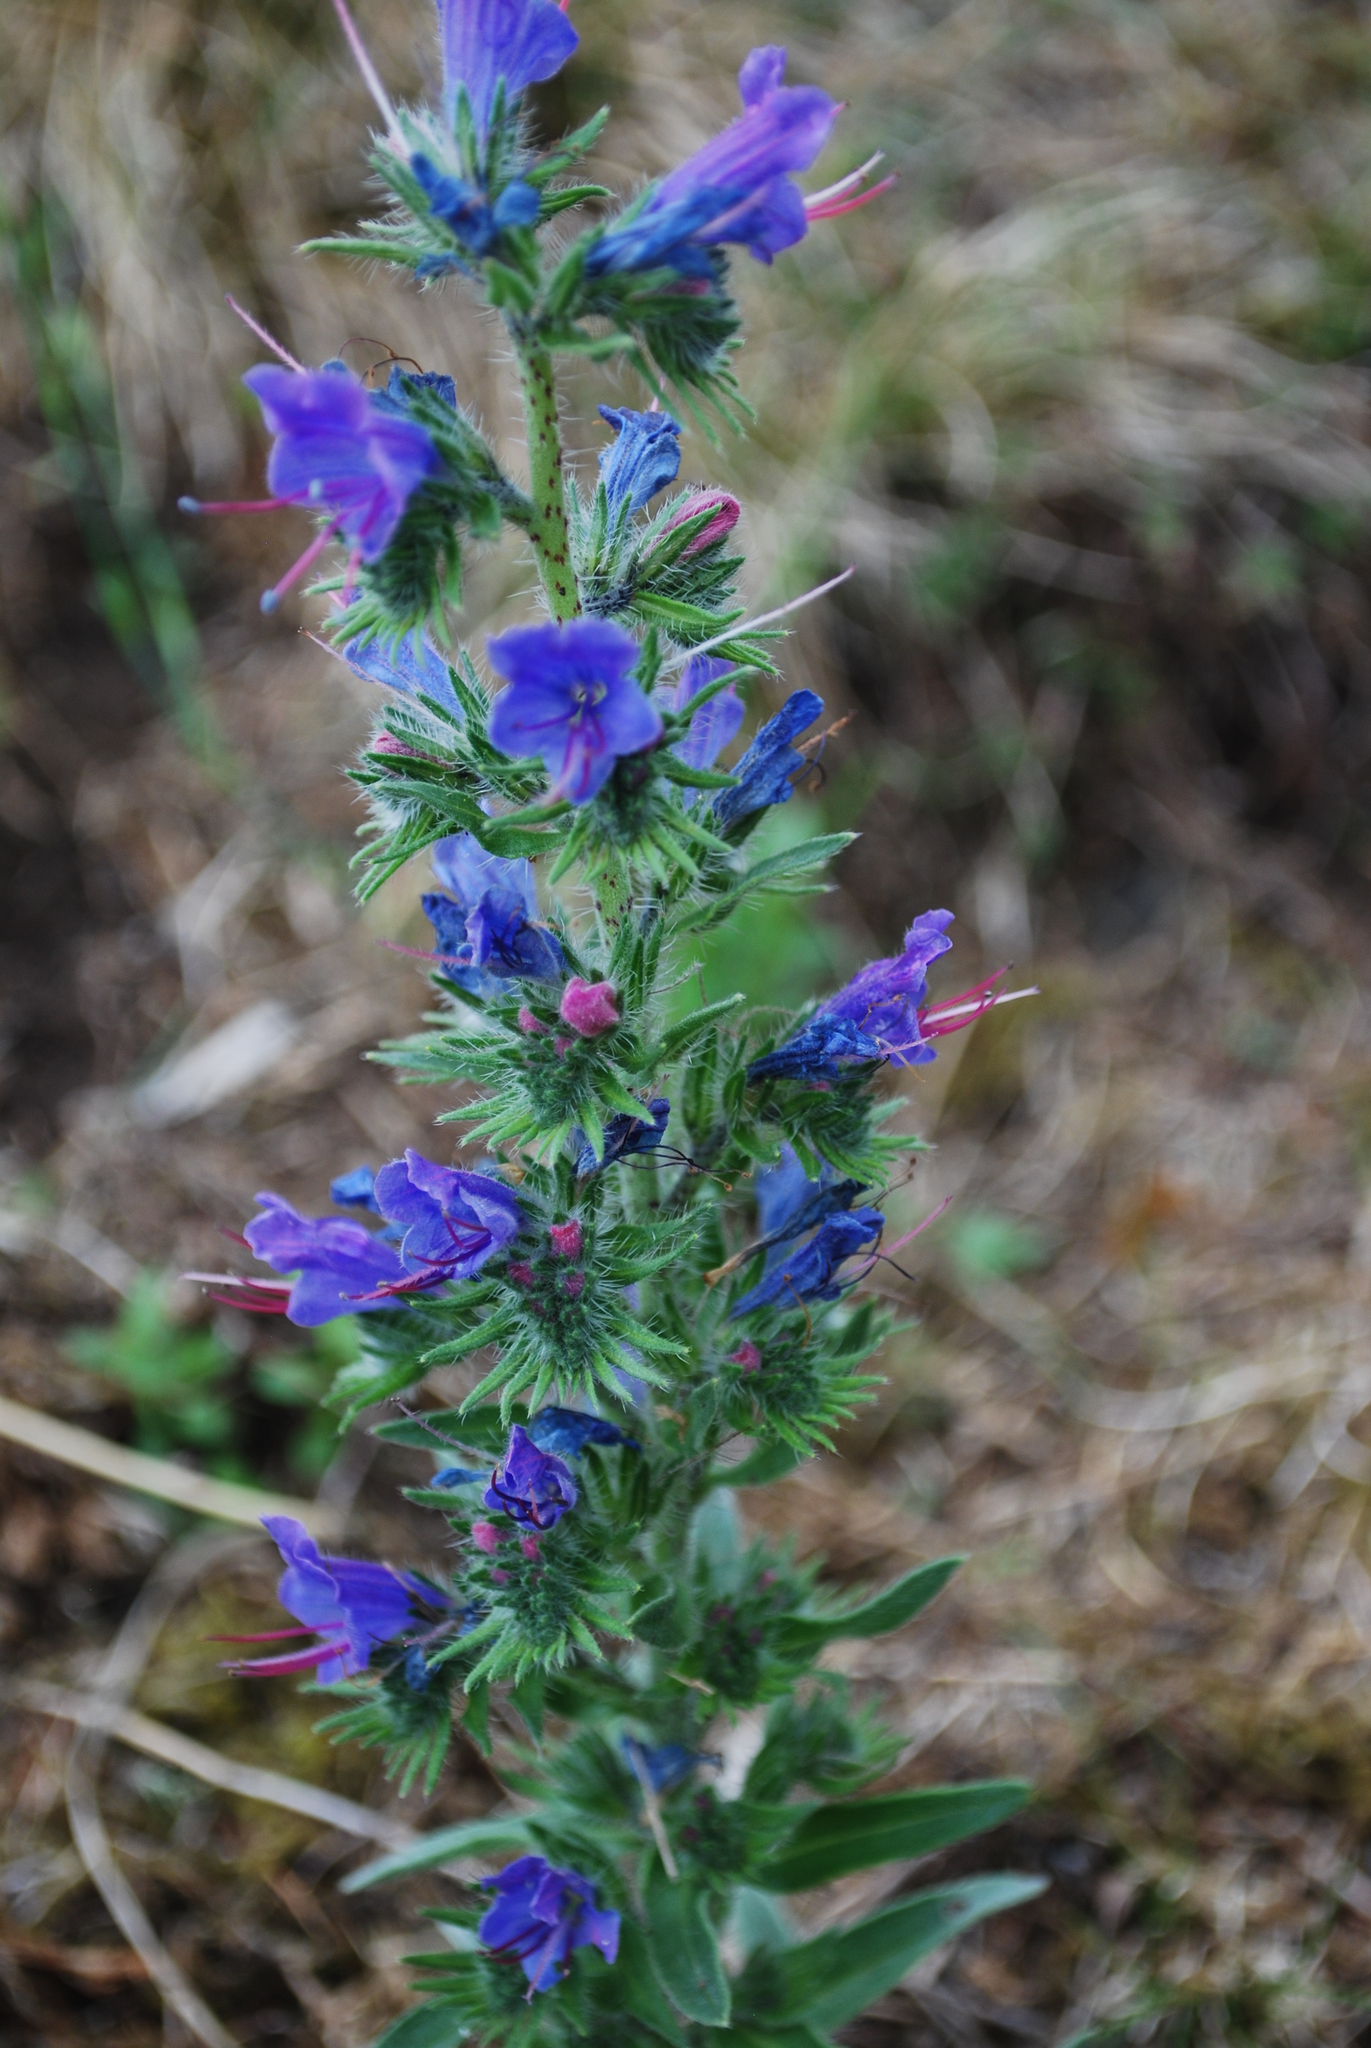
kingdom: Plantae
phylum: Tracheophyta
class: Magnoliopsida
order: Boraginales
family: Boraginaceae
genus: Echium
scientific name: Echium vulgare
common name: Common viper's bugloss
